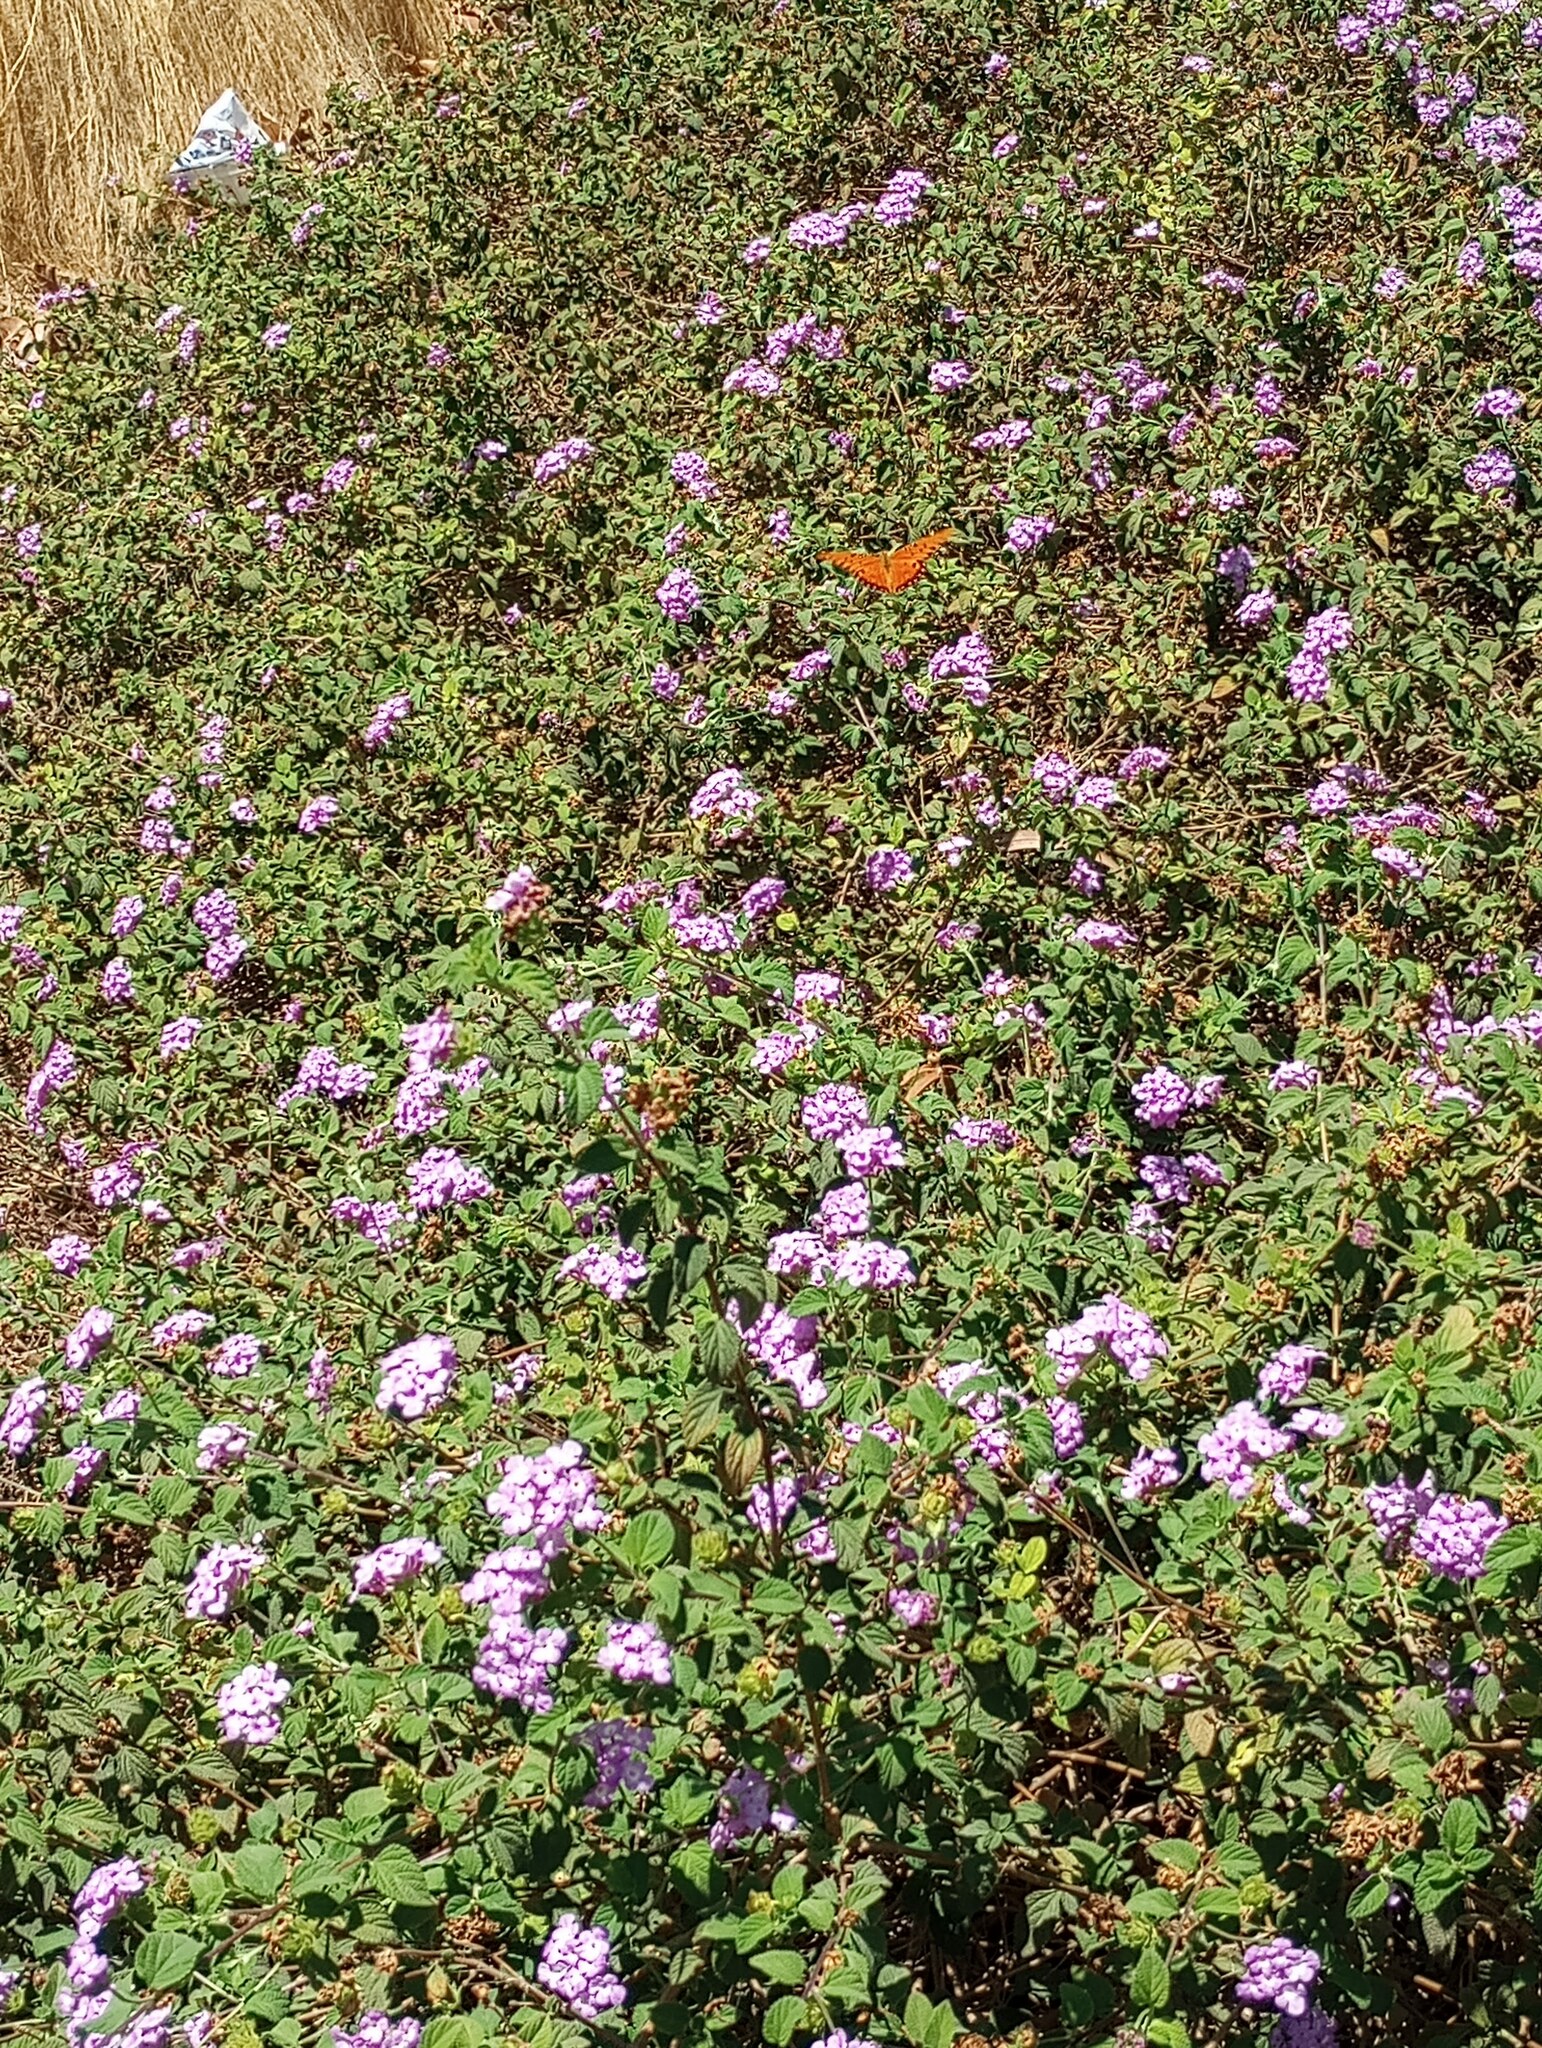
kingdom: Animalia
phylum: Arthropoda
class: Insecta
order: Lepidoptera
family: Nymphalidae
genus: Dione
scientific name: Dione vanillae
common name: Gulf fritillary
